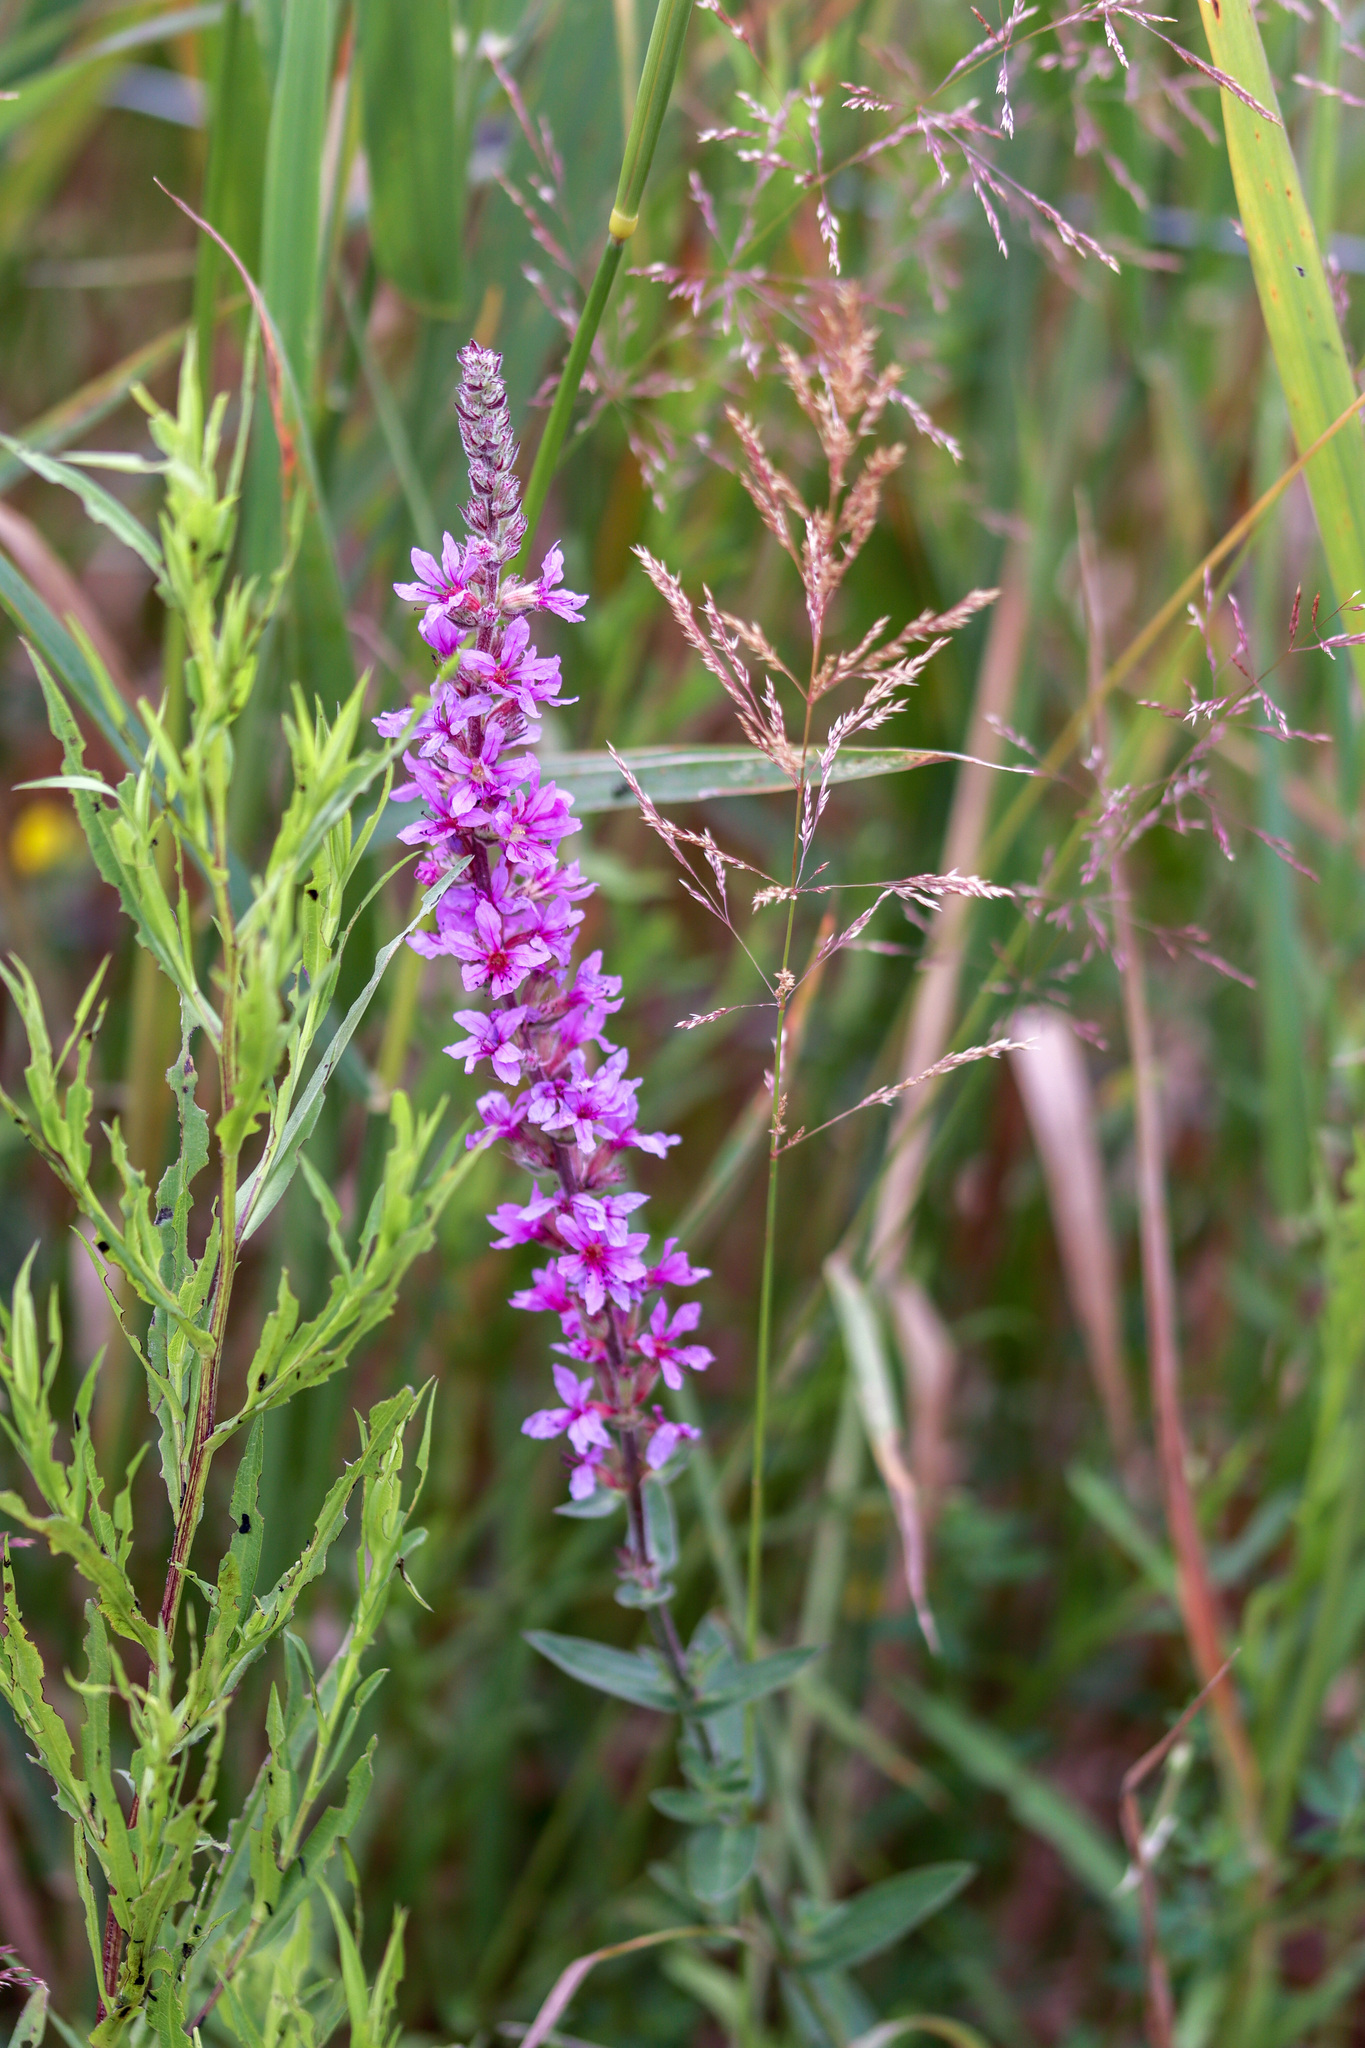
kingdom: Plantae
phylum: Tracheophyta
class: Magnoliopsida
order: Myrtales
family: Lythraceae
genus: Lythrum
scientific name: Lythrum salicaria
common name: Purple loosestrife
